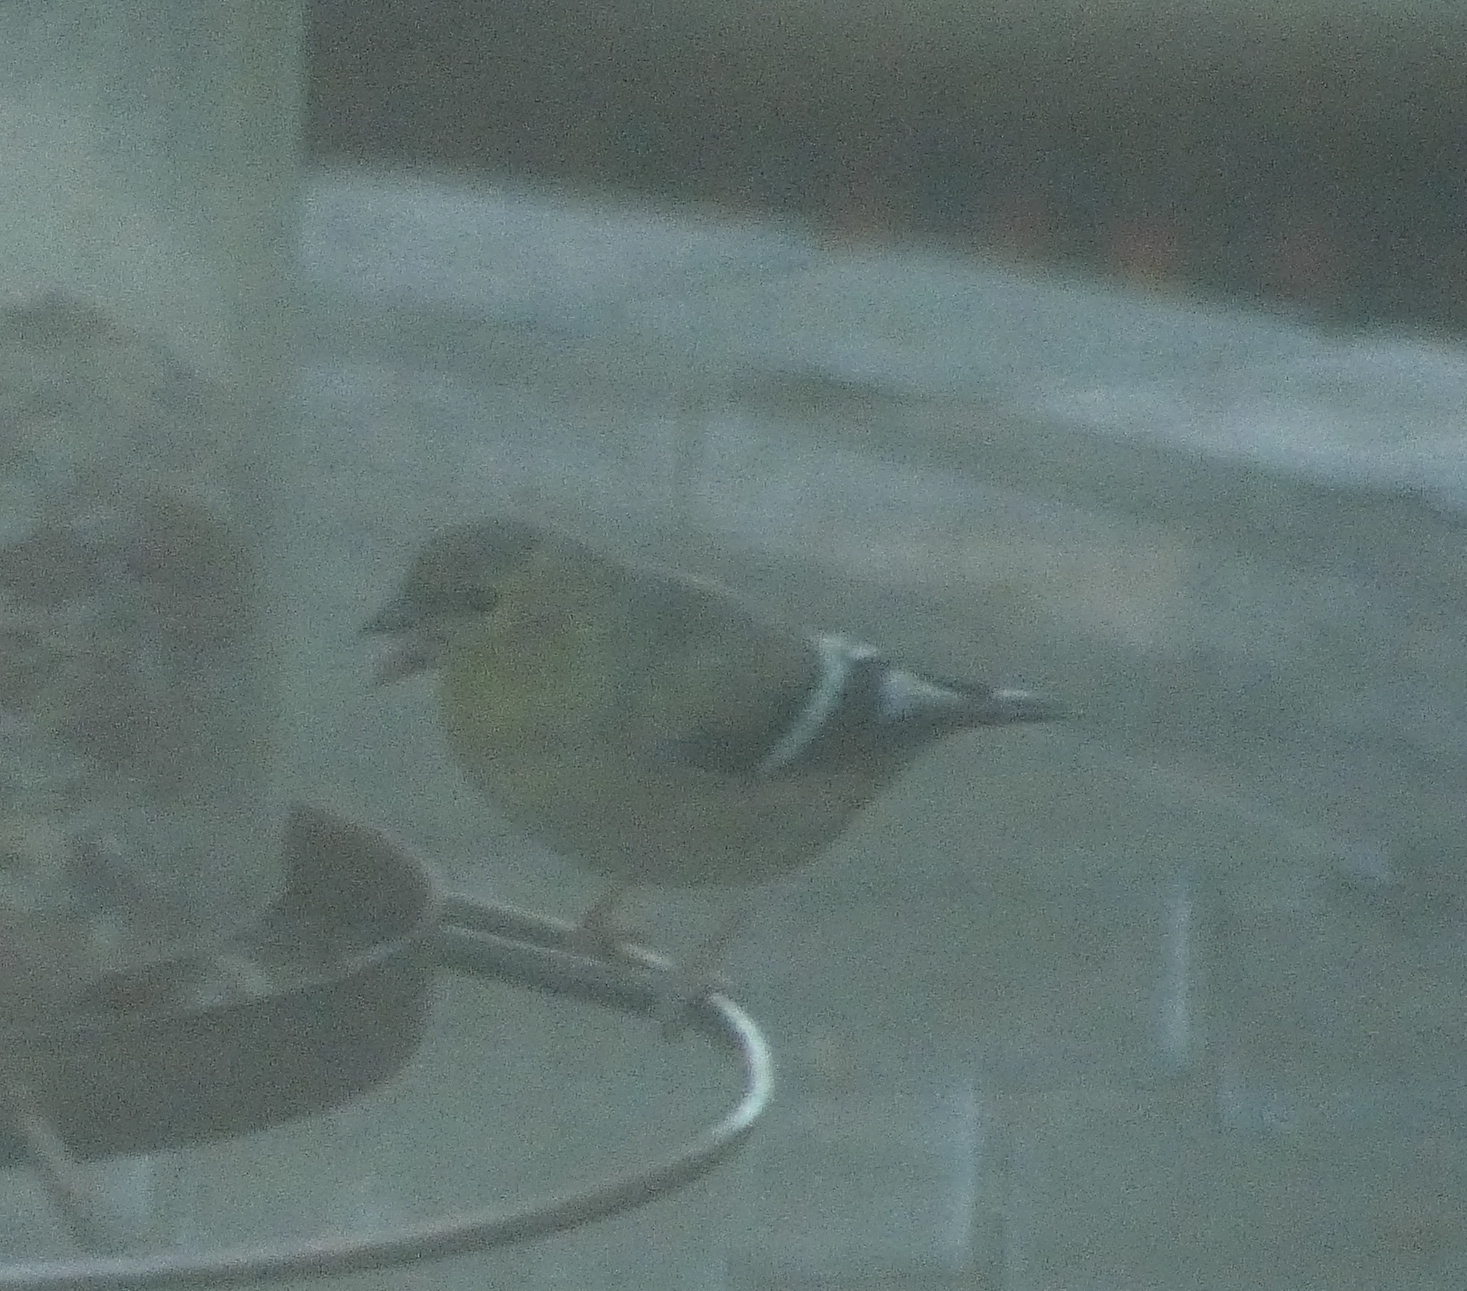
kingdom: Animalia
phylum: Chordata
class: Aves
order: Passeriformes
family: Fringillidae
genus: Spinus
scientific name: Spinus tristis
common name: American goldfinch
